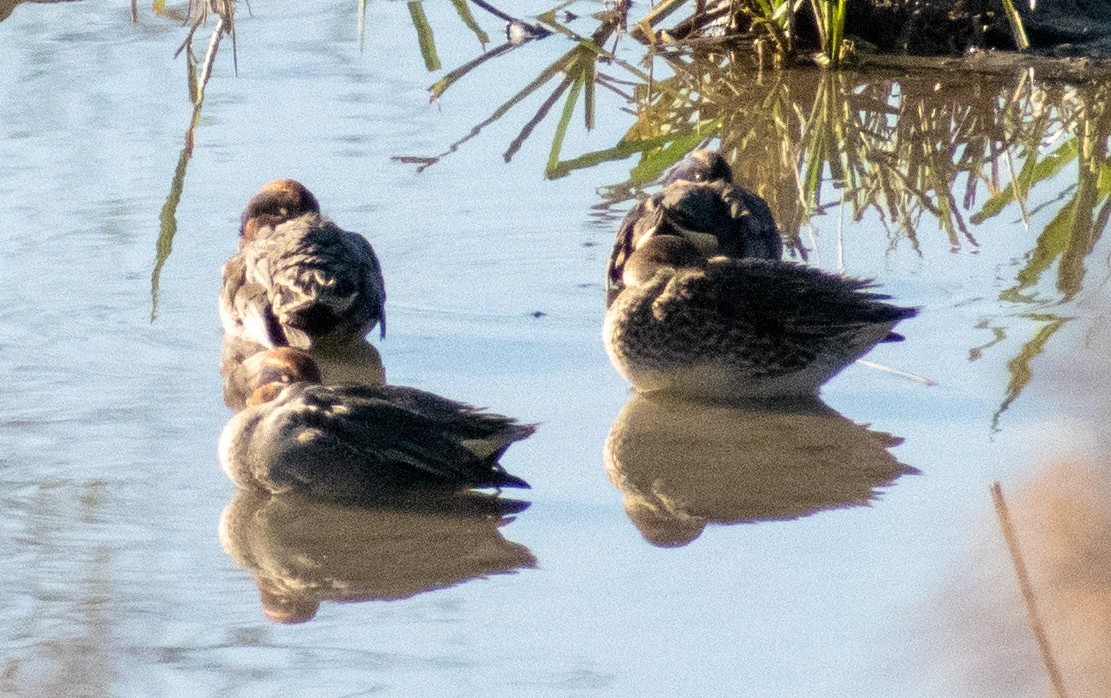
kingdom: Animalia
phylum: Chordata
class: Aves
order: Anseriformes
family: Anatidae
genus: Anas
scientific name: Anas crecca
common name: Eurasian teal
